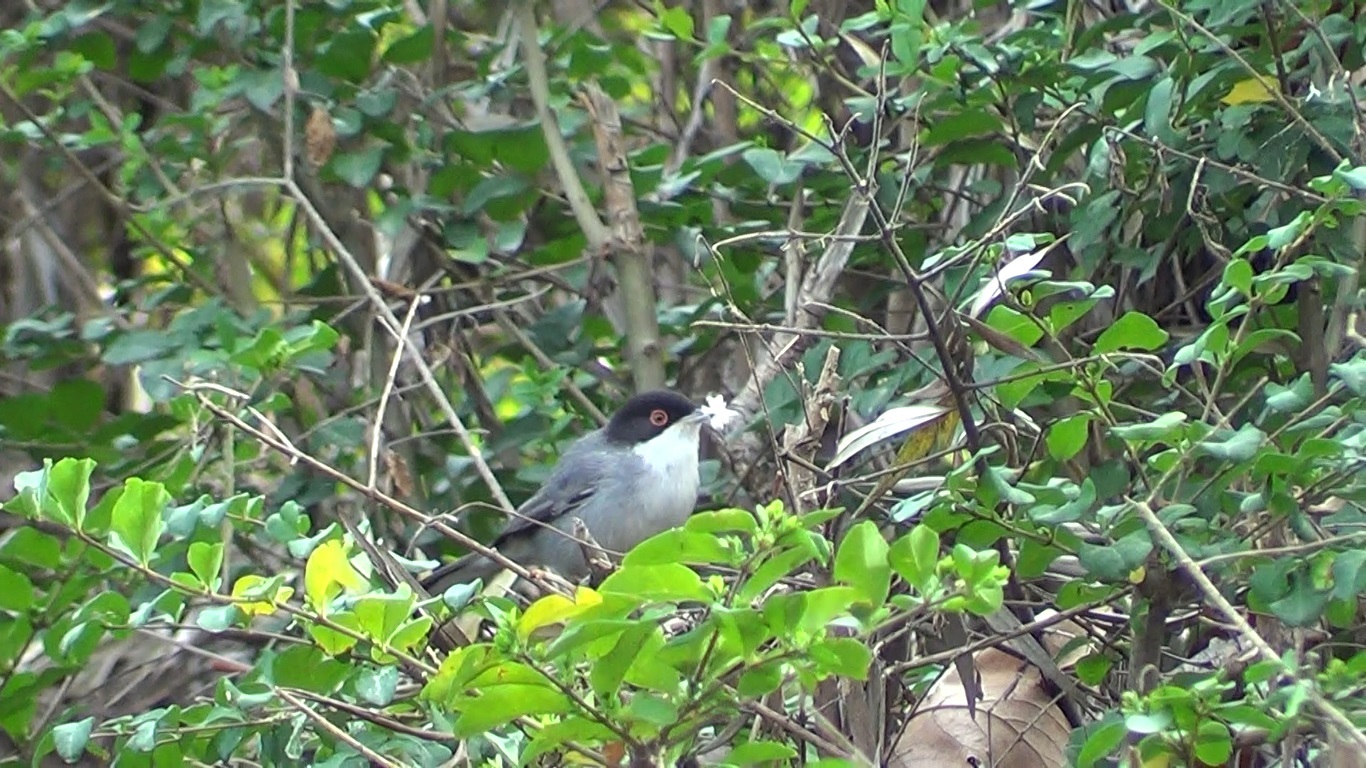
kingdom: Animalia
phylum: Chordata
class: Aves
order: Passeriformes
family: Sylviidae
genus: Curruca
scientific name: Curruca melanocephala
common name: Sardinian warbler
